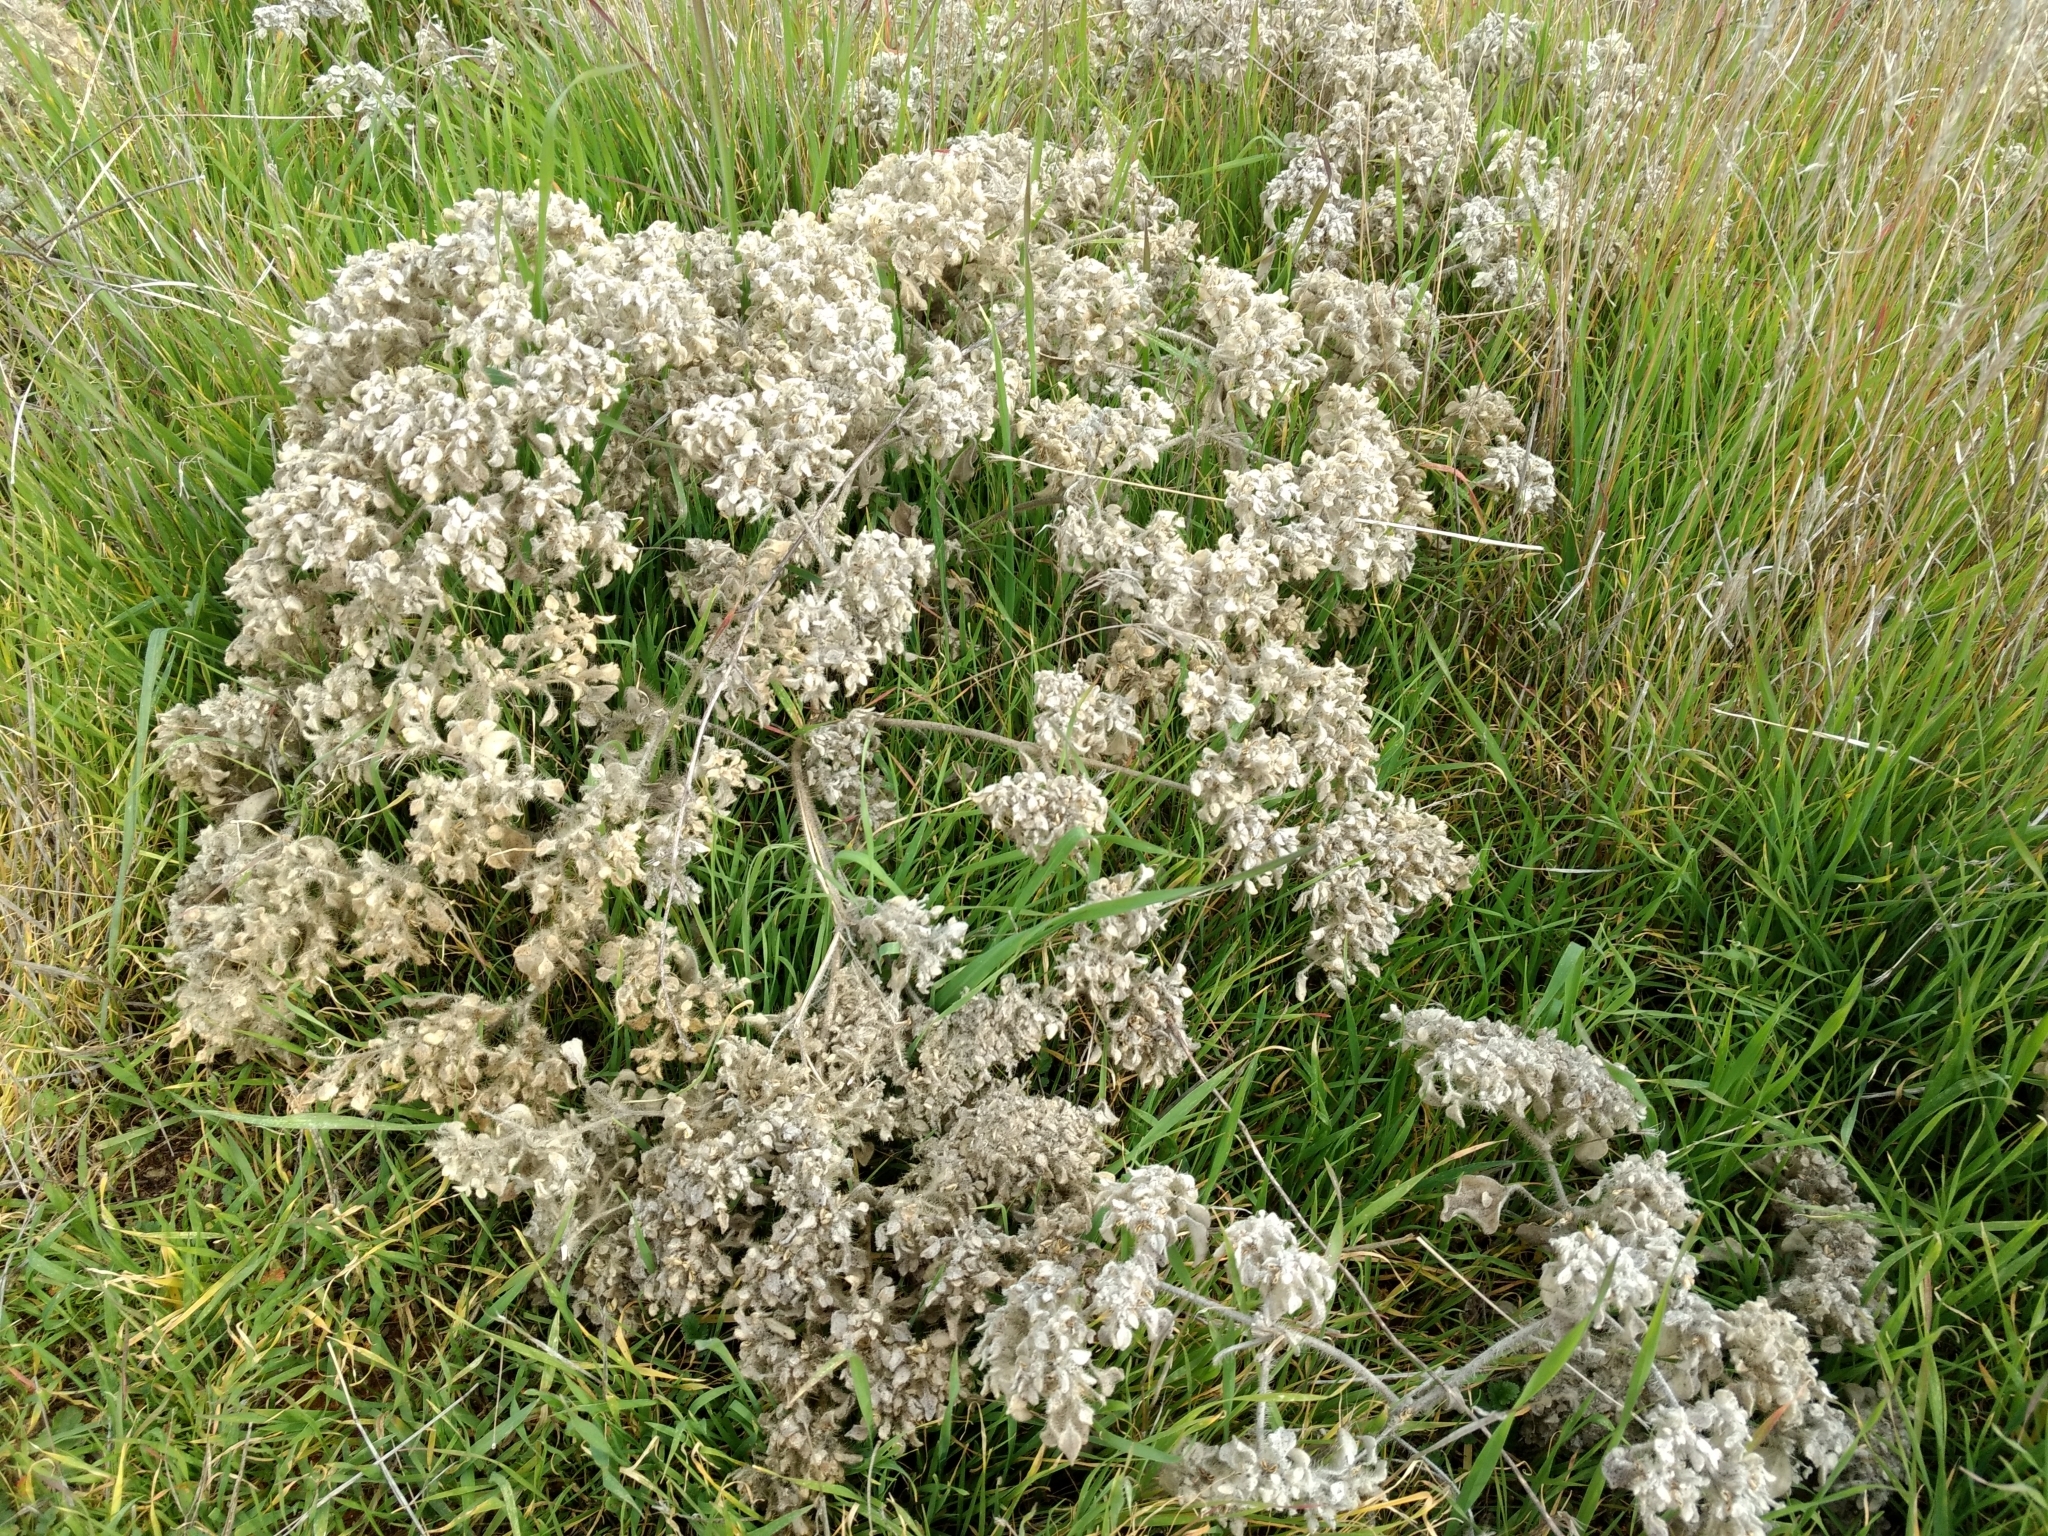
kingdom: Plantae
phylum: Tracheophyta
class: Magnoliopsida
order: Malpighiales
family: Euphorbiaceae
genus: Croton
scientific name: Croton setiger
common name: Dove weed
